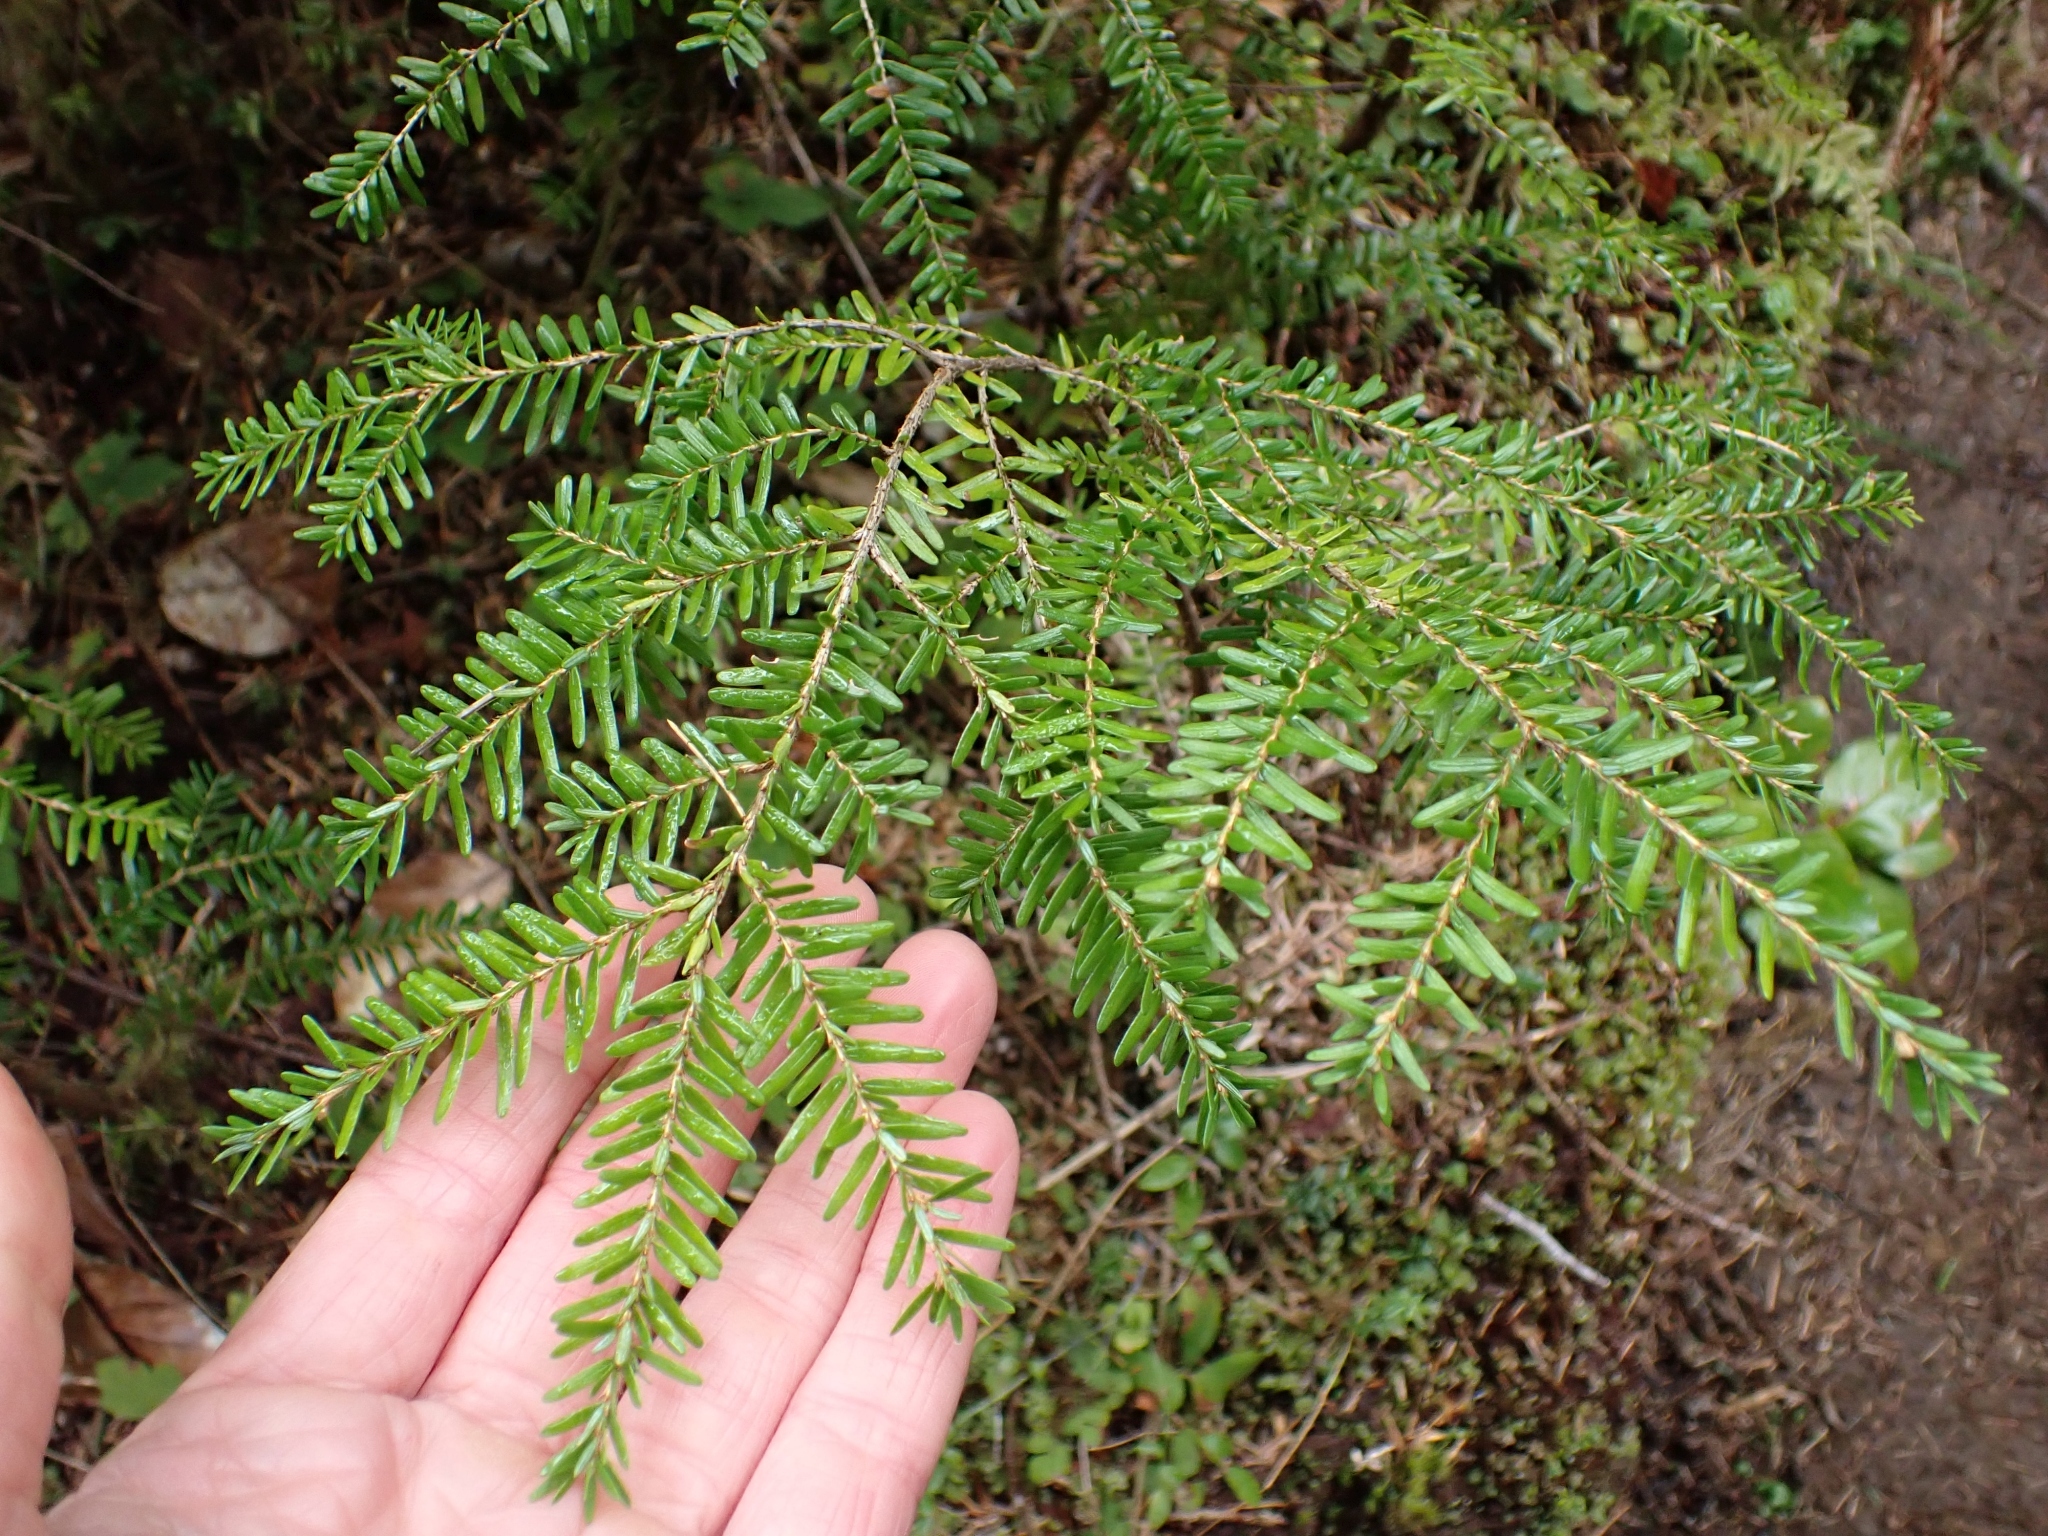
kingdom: Plantae
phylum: Tracheophyta
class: Pinopsida
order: Pinales
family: Pinaceae
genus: Tsuga
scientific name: Tsuga heterophylla
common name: Western hemlock
